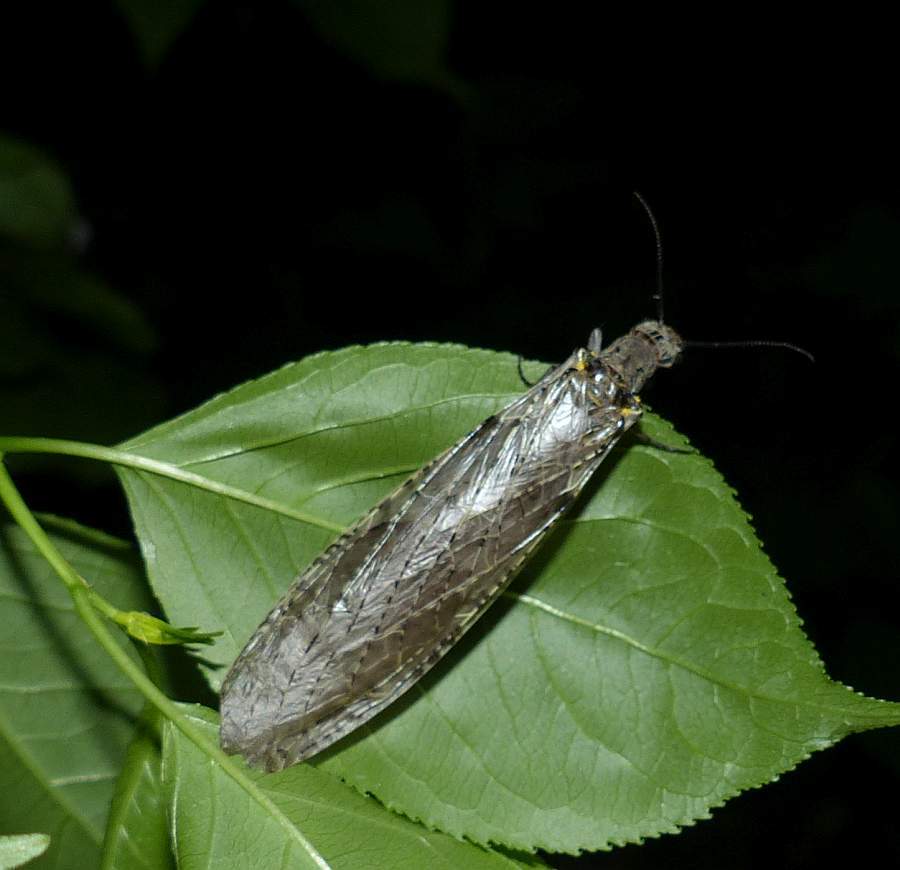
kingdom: Animalia
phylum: Arthropoda
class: Insecta
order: Megaloptera
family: Corydalidae
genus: Chauliodes
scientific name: Chauliodes rastricornis
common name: Spring fishfly
